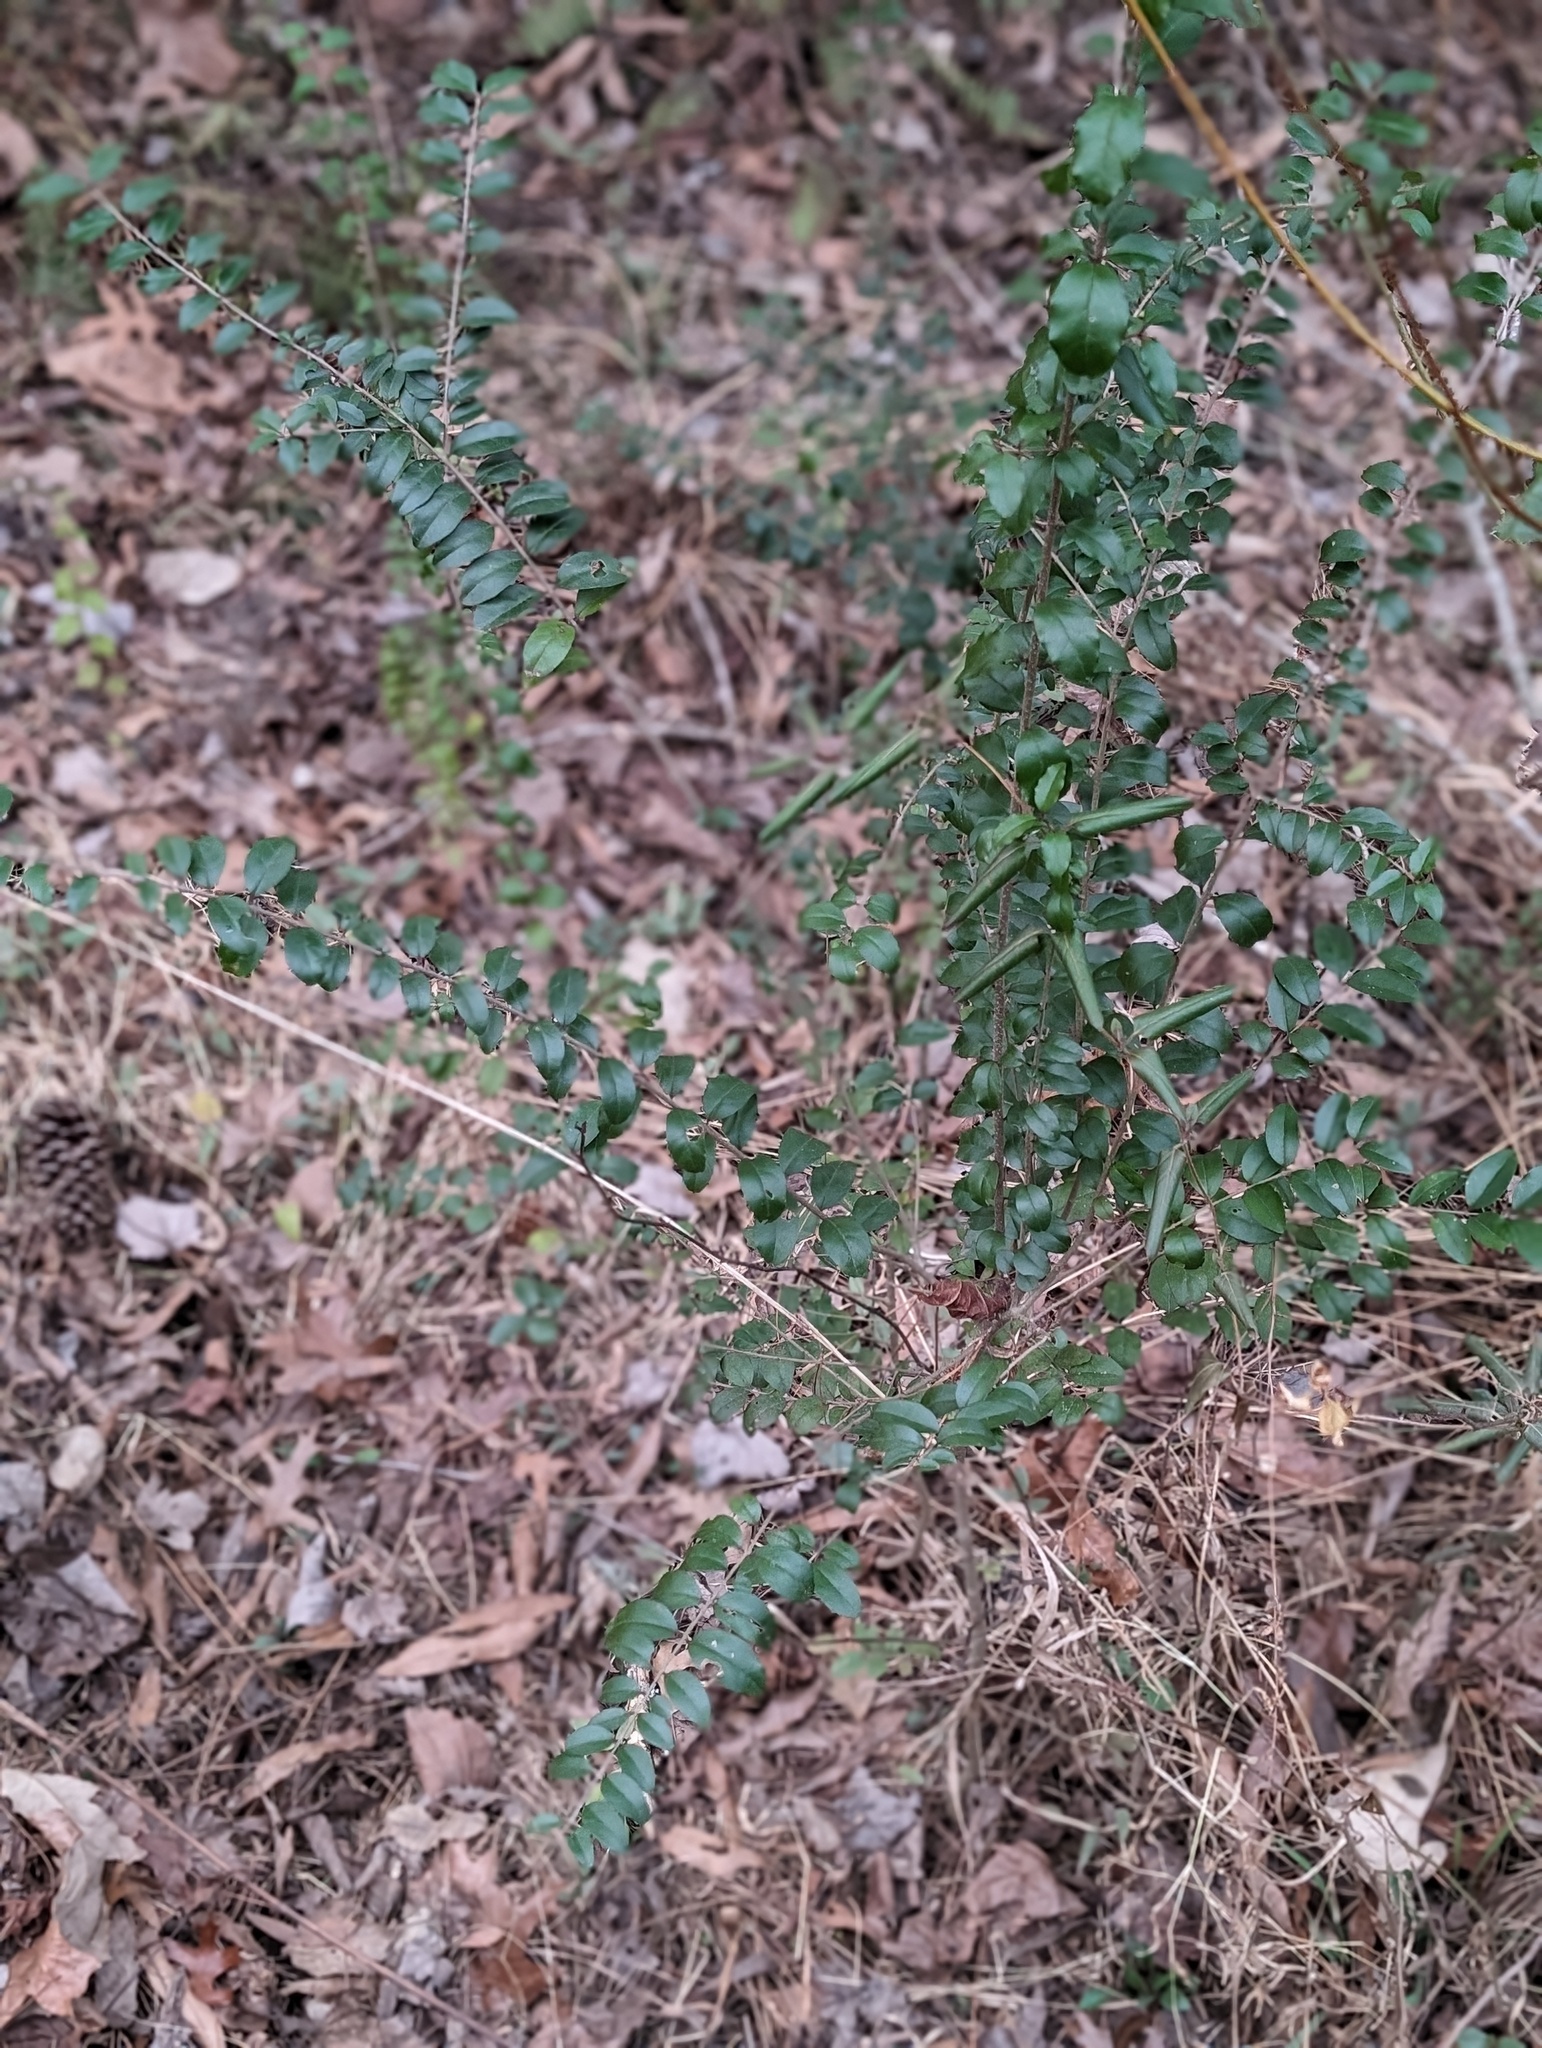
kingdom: Plantae
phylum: Tracheophyta
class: Magnoliopsida
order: Lamiales
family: Oleaceae
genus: Ligustrum
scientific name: Ligustrum sinense
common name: Chinese privet
